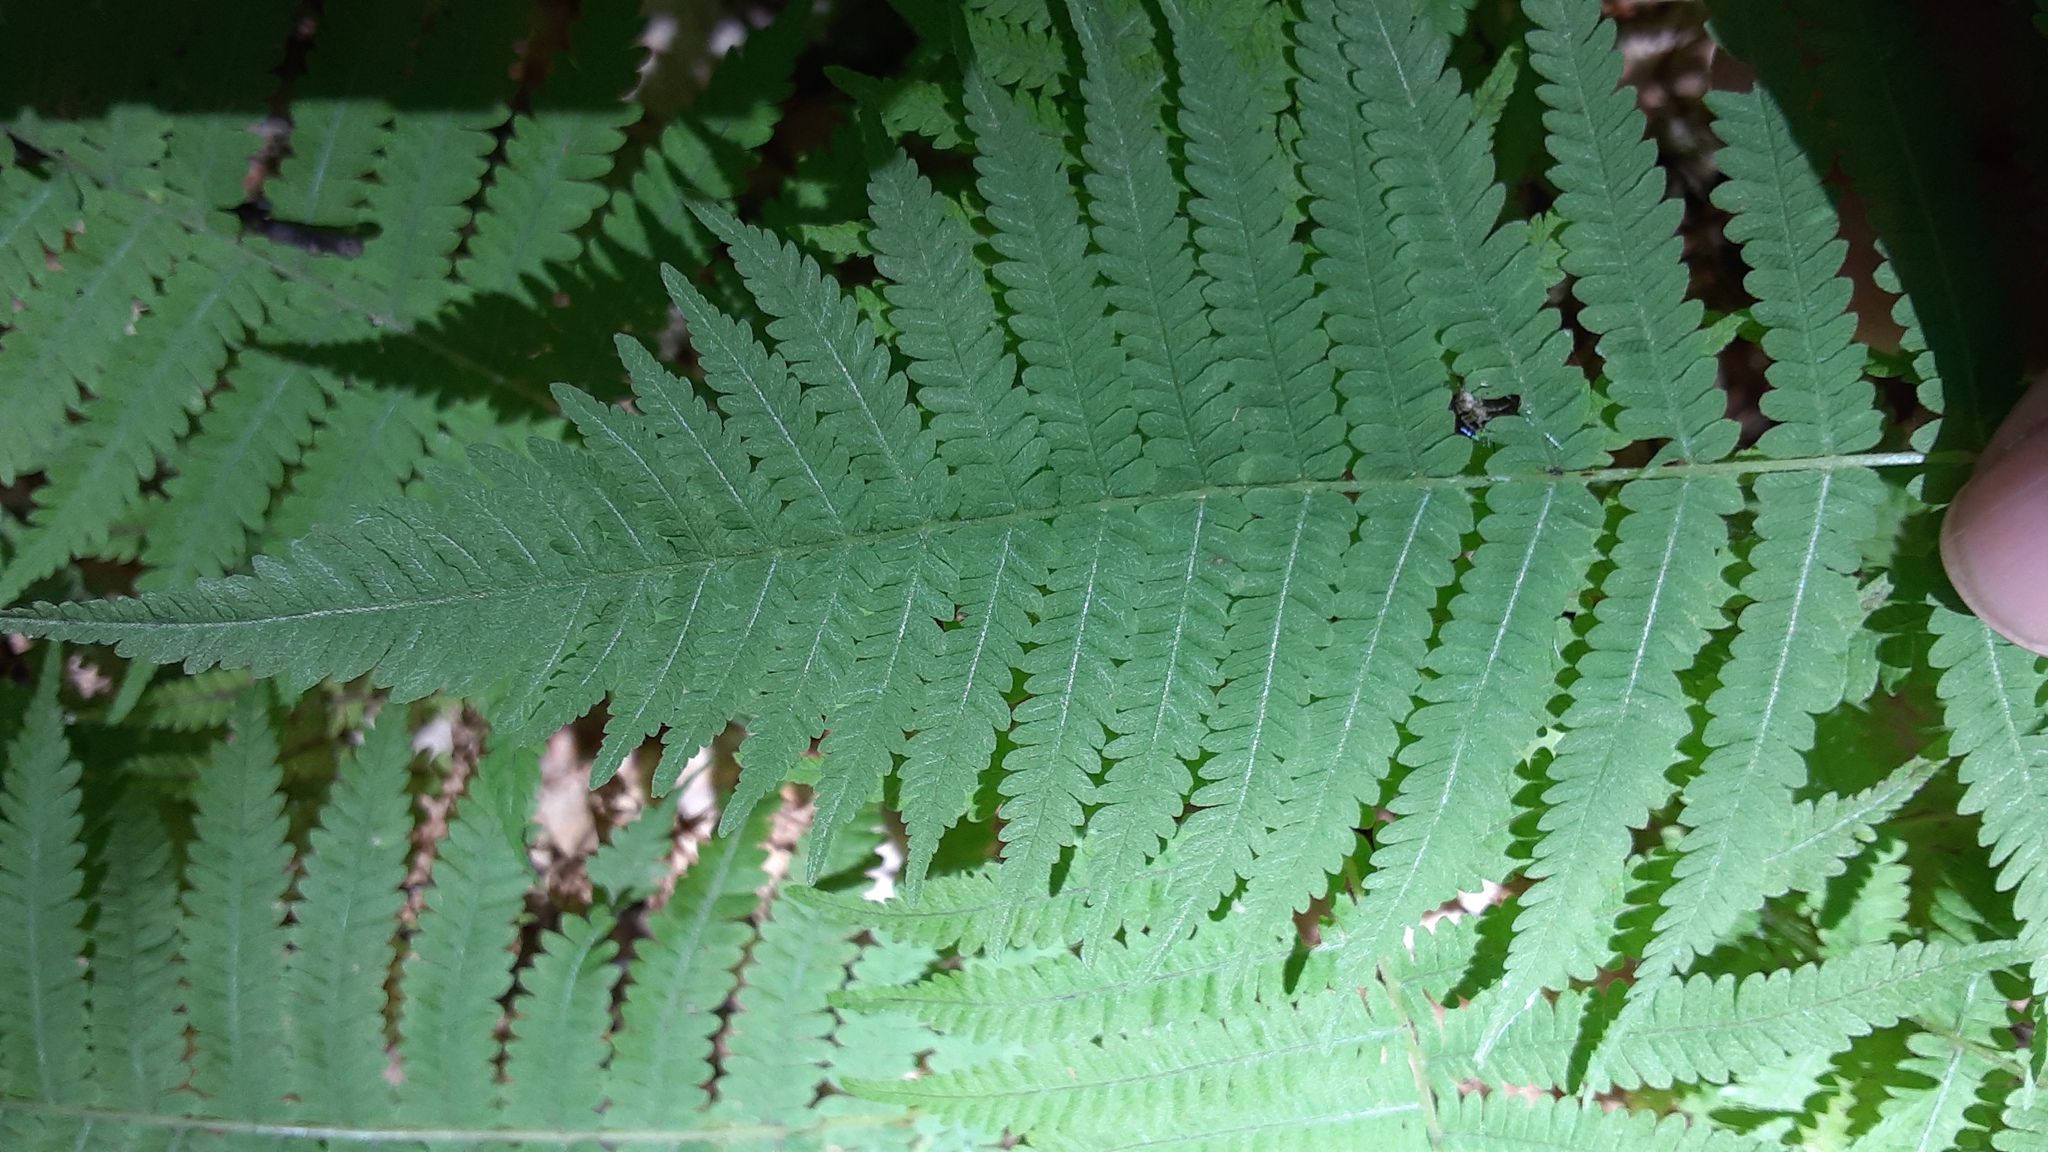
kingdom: Plantae
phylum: Tracheophyta
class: Polypodiopsida
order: Polypodiales
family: Thelypteridaceae
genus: Amauropelta
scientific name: Amauropelta noveboracensis
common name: New york fern
